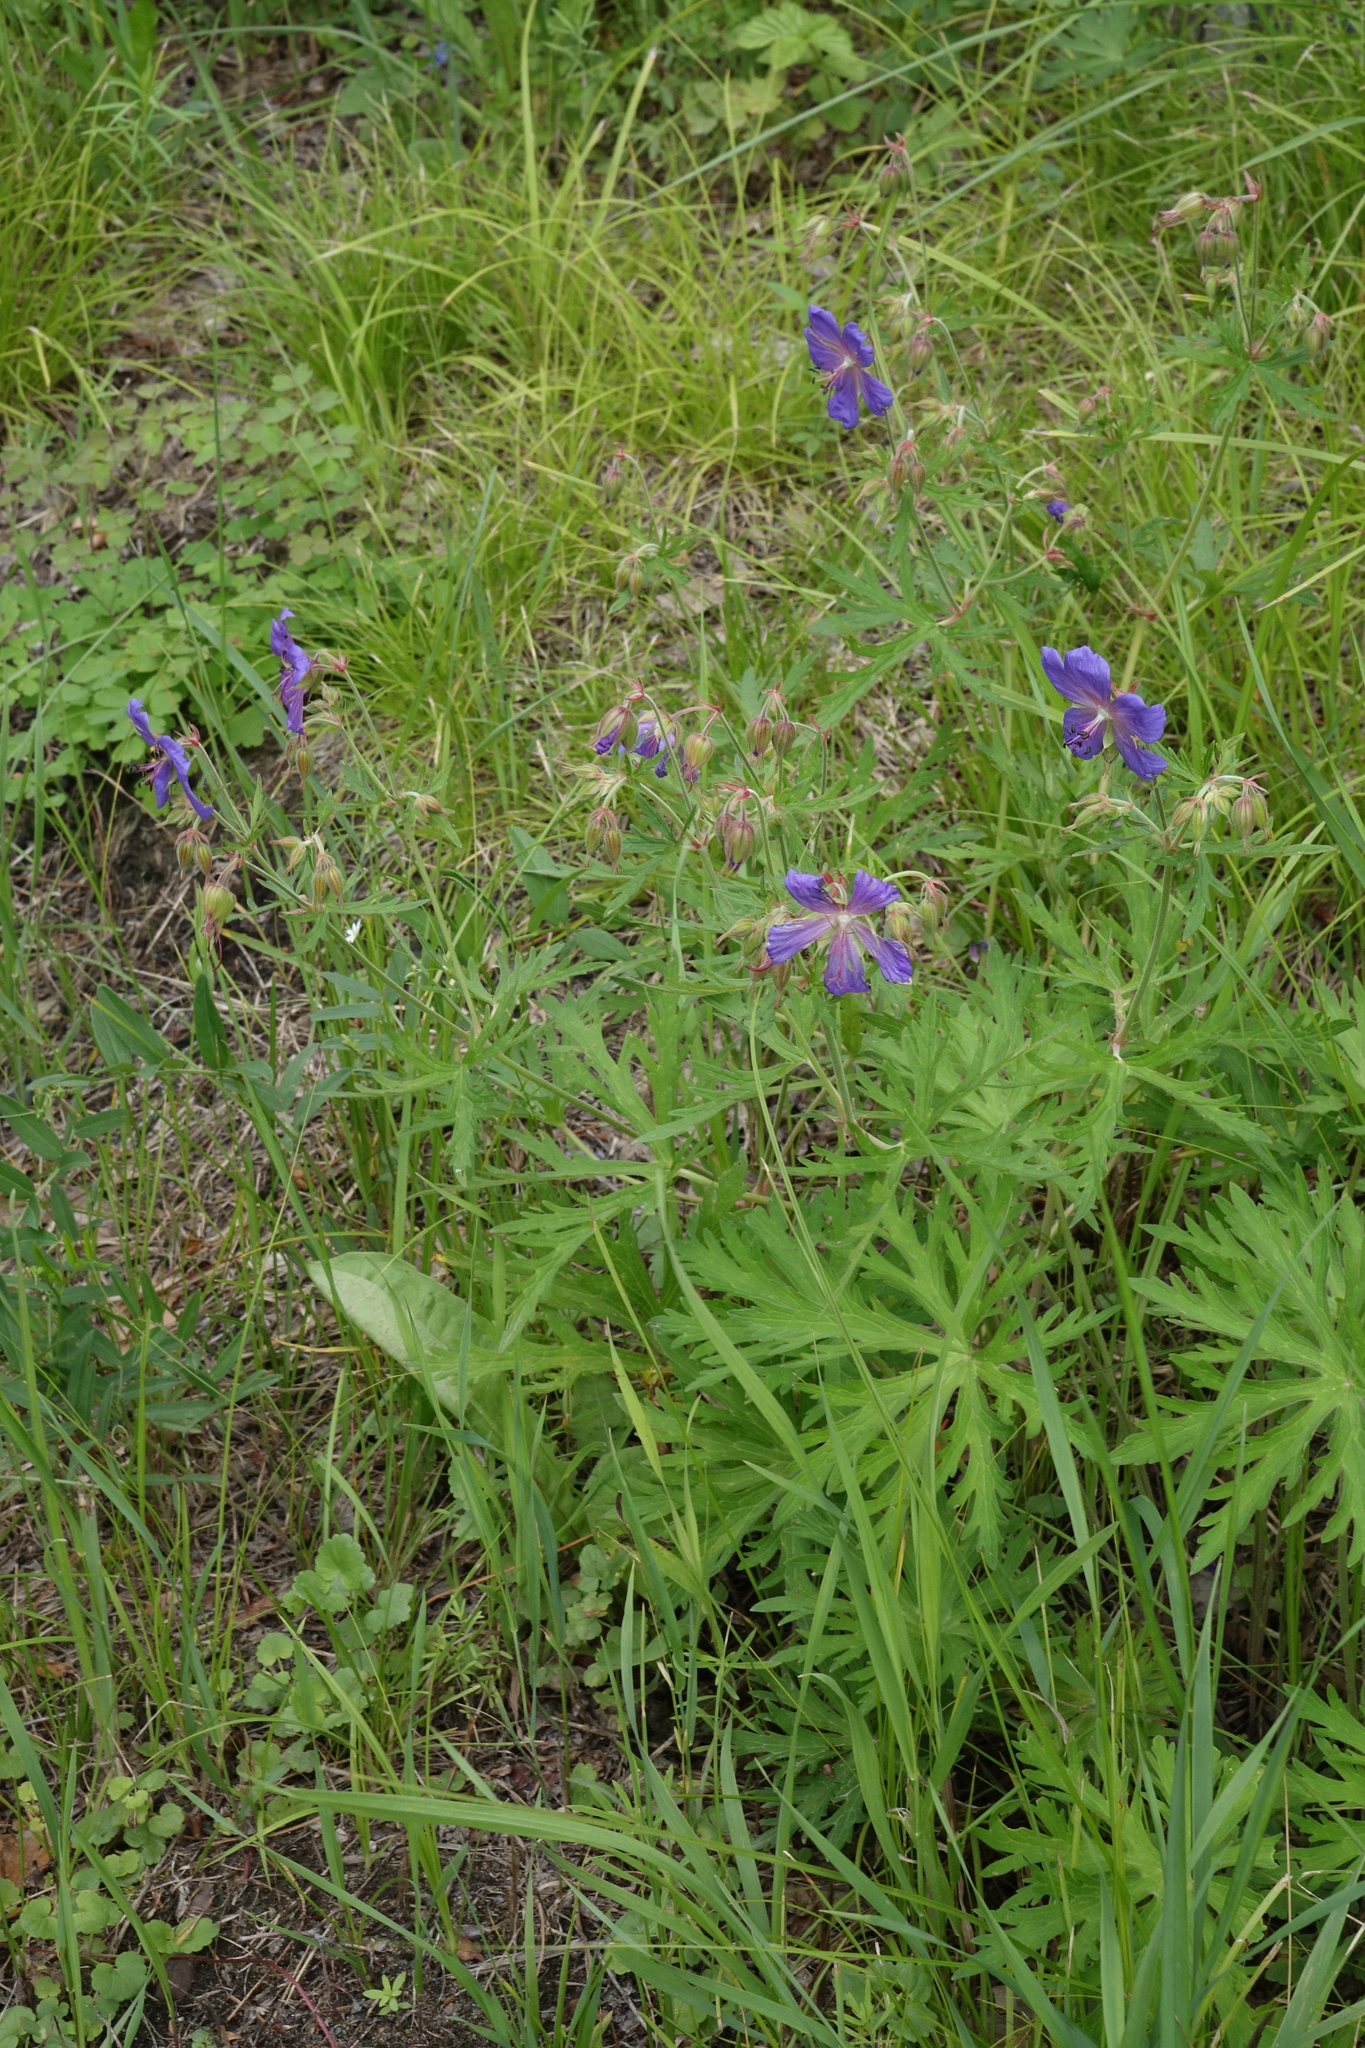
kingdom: Plantae
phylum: Tracheophyta
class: Magnoliopsida
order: Geraniales
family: Geraniaceae
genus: Geranium
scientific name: Geranium pratense
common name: Meadow crane's-bill
